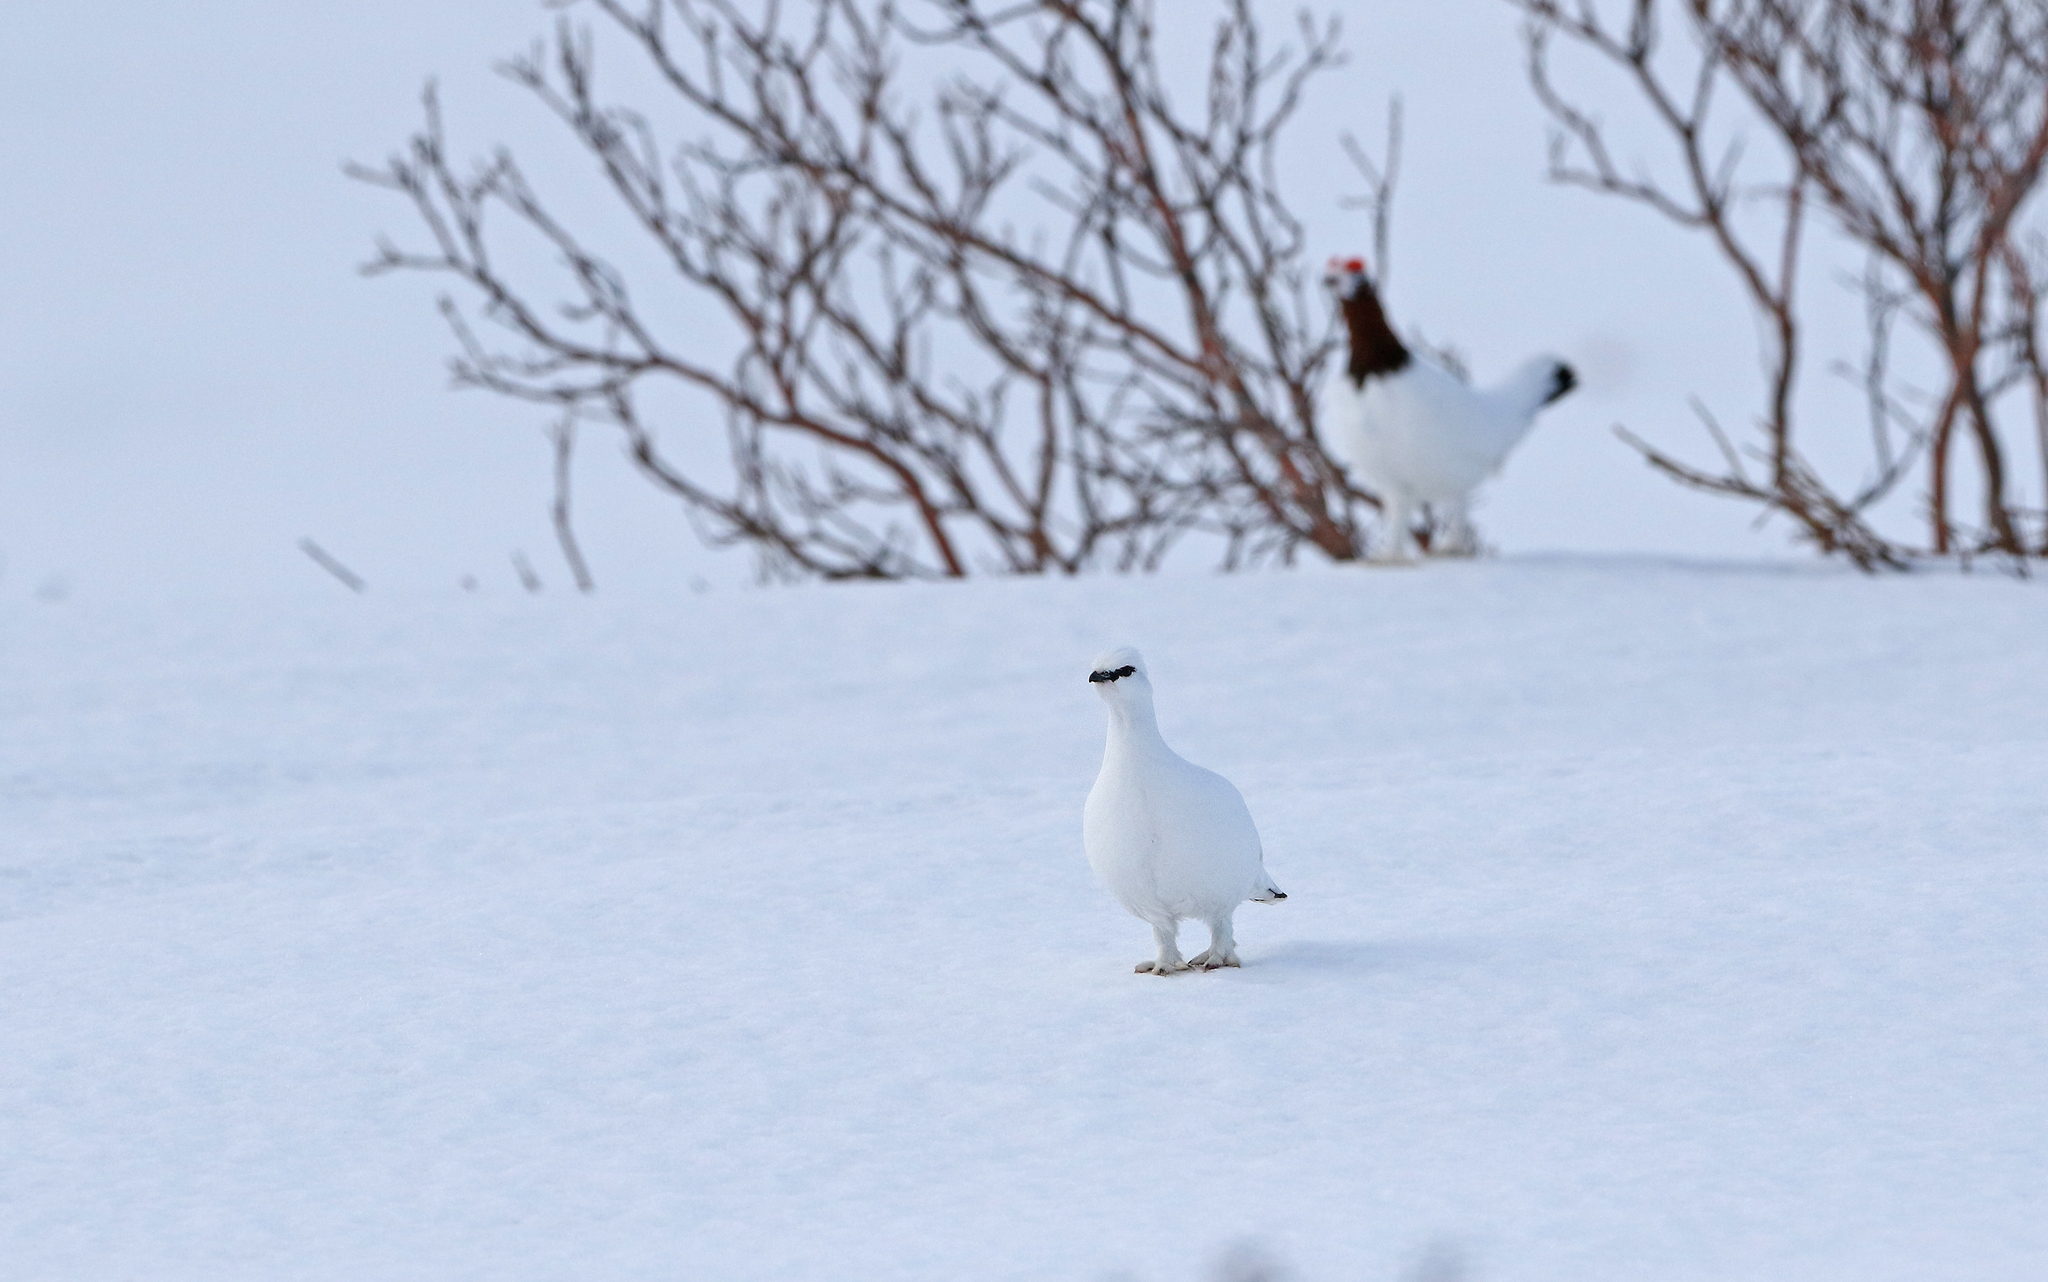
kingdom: Animalia
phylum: Chordata
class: Aves
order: Galliformes
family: Phasianidae
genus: Lagopus
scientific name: Lagopus muta
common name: Rock ptarmigan
